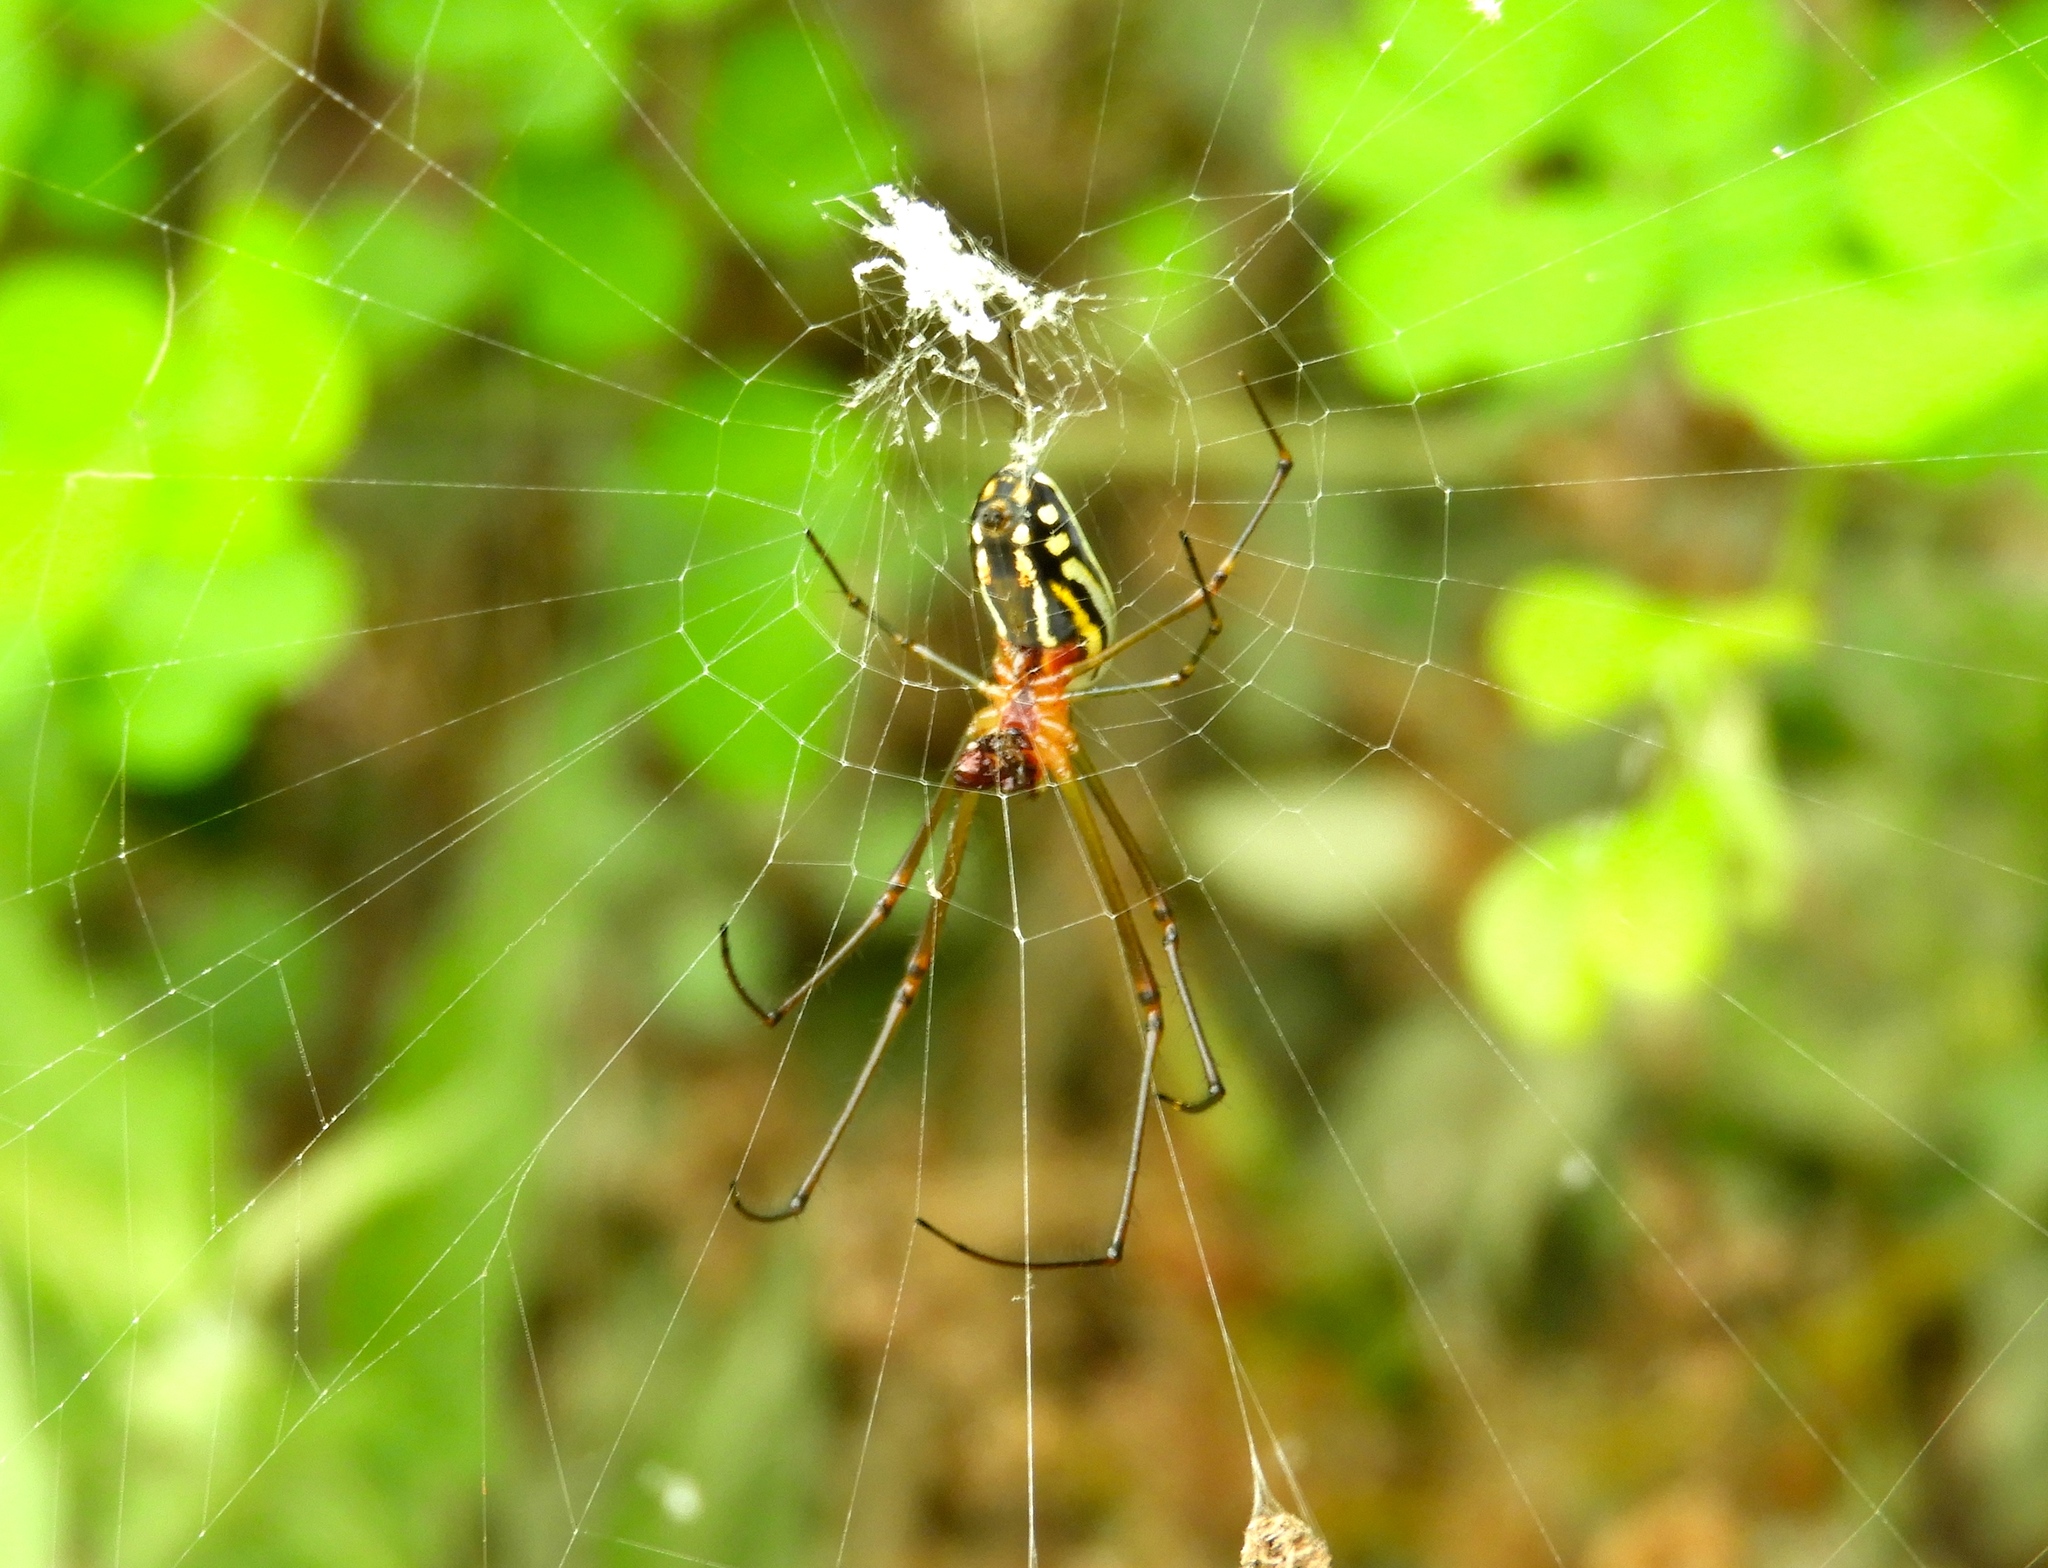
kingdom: Animalia
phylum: Arthropoda
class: Arachnida
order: Araneae
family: Tetragnathidae
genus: Leucauge
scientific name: Leucauge argyra
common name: Longjawed orb weavers
